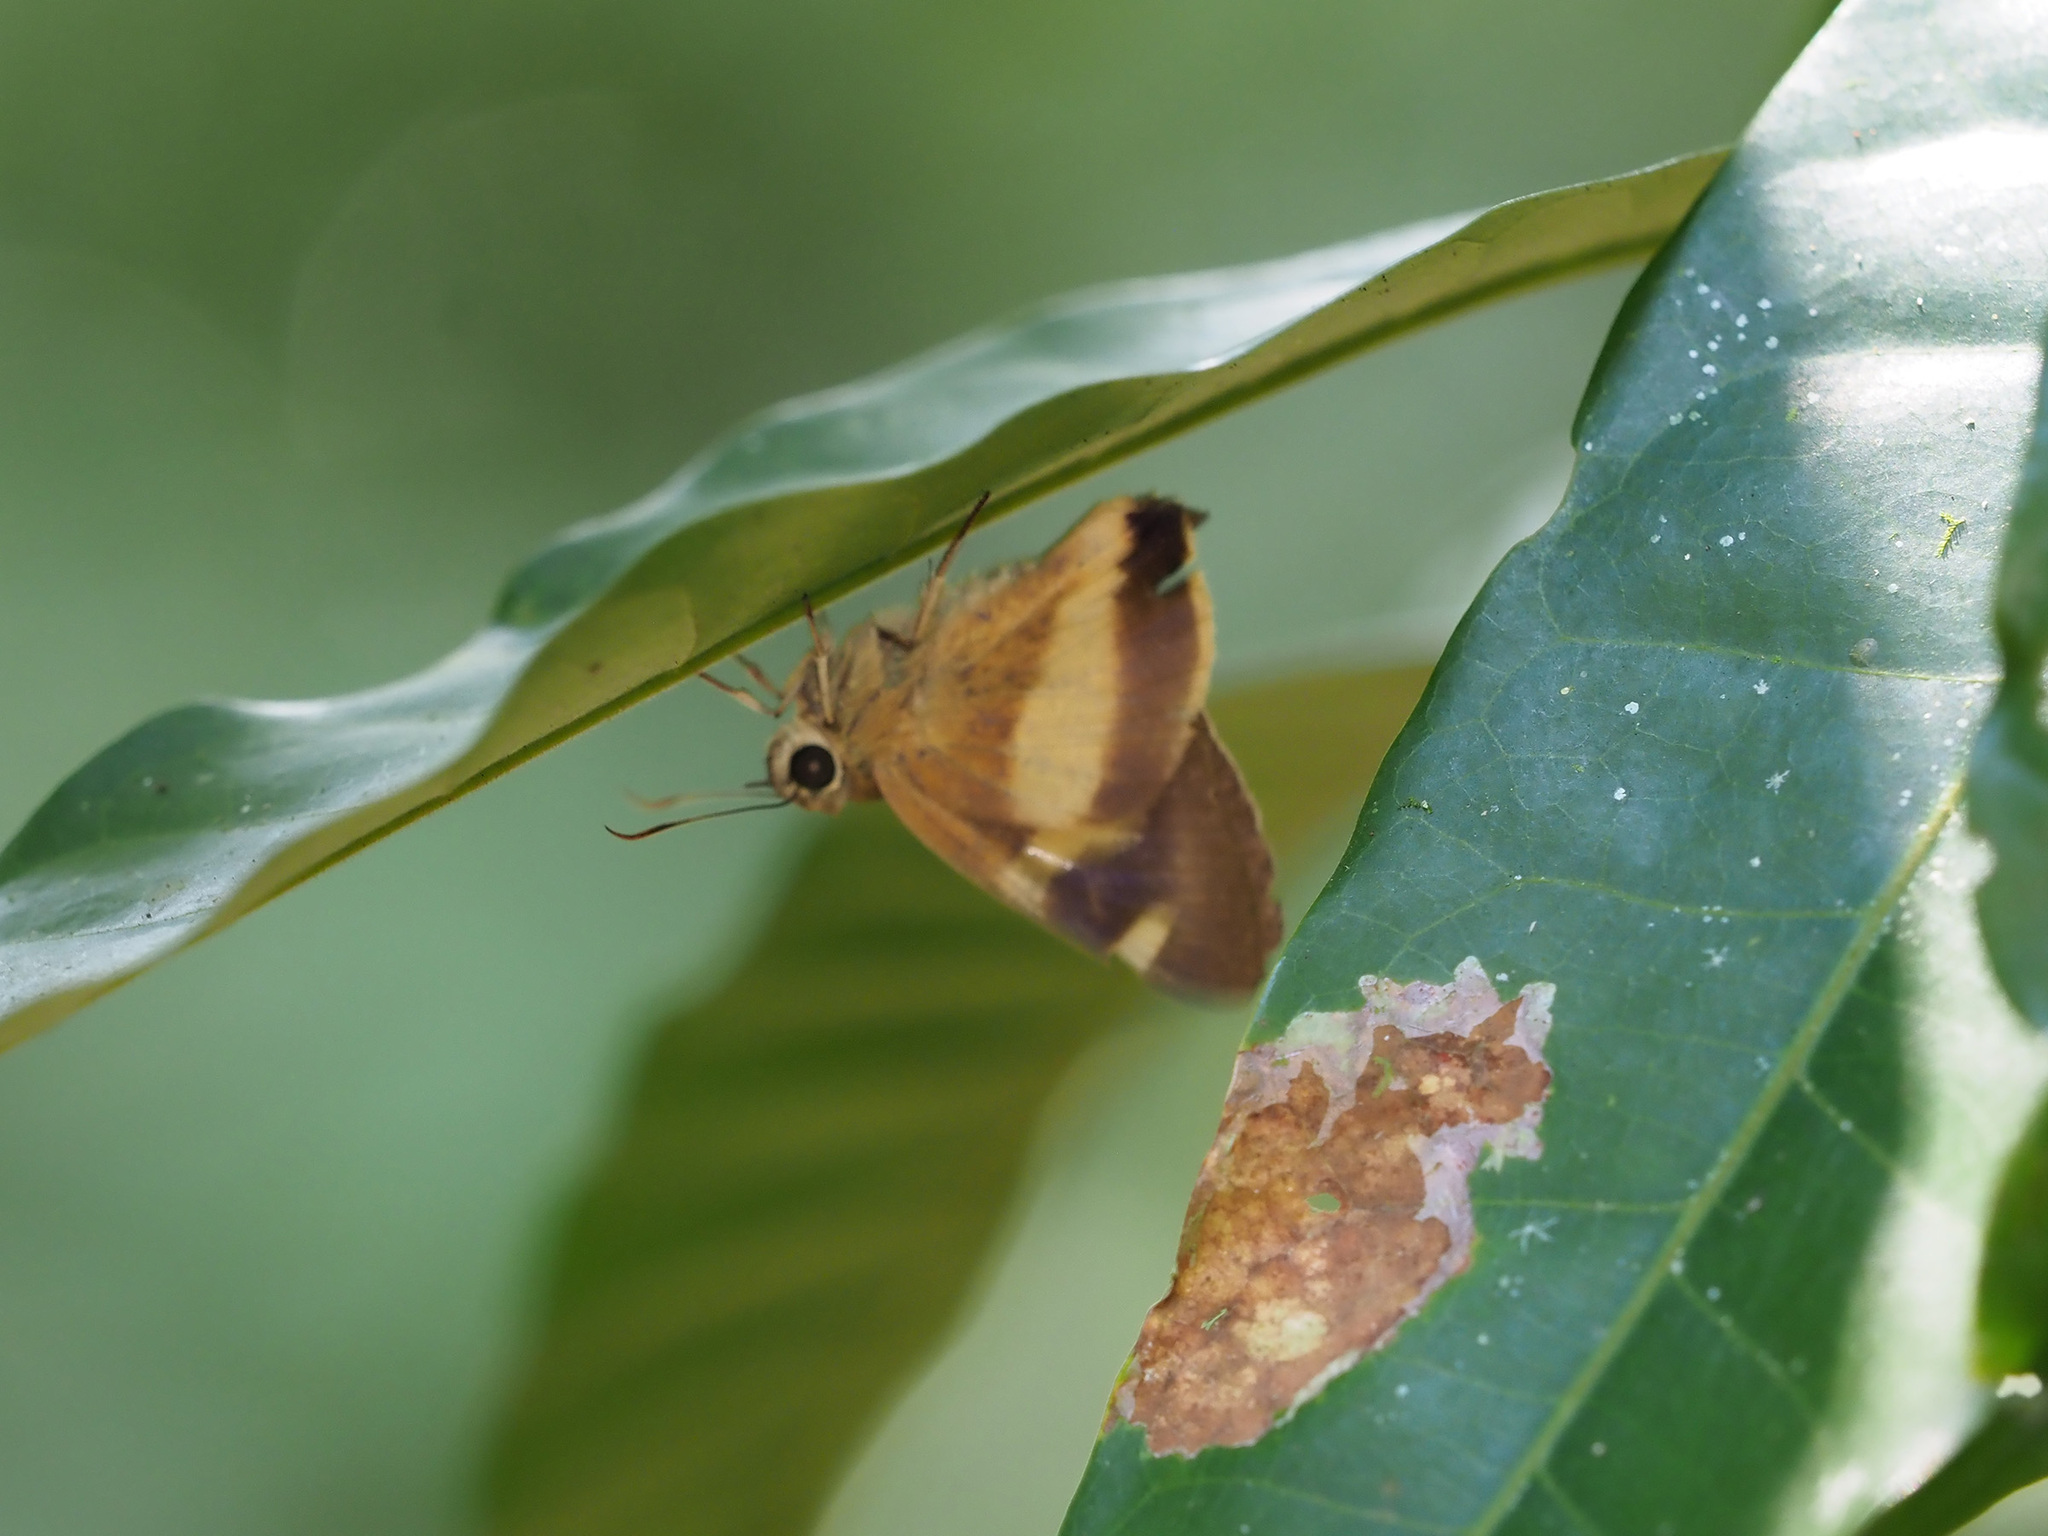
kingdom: Animalia
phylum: Arthropoda
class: Insecta
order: Lepidoptera
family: Hesperiidae
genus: Hasora
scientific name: Hasora schoenherr
